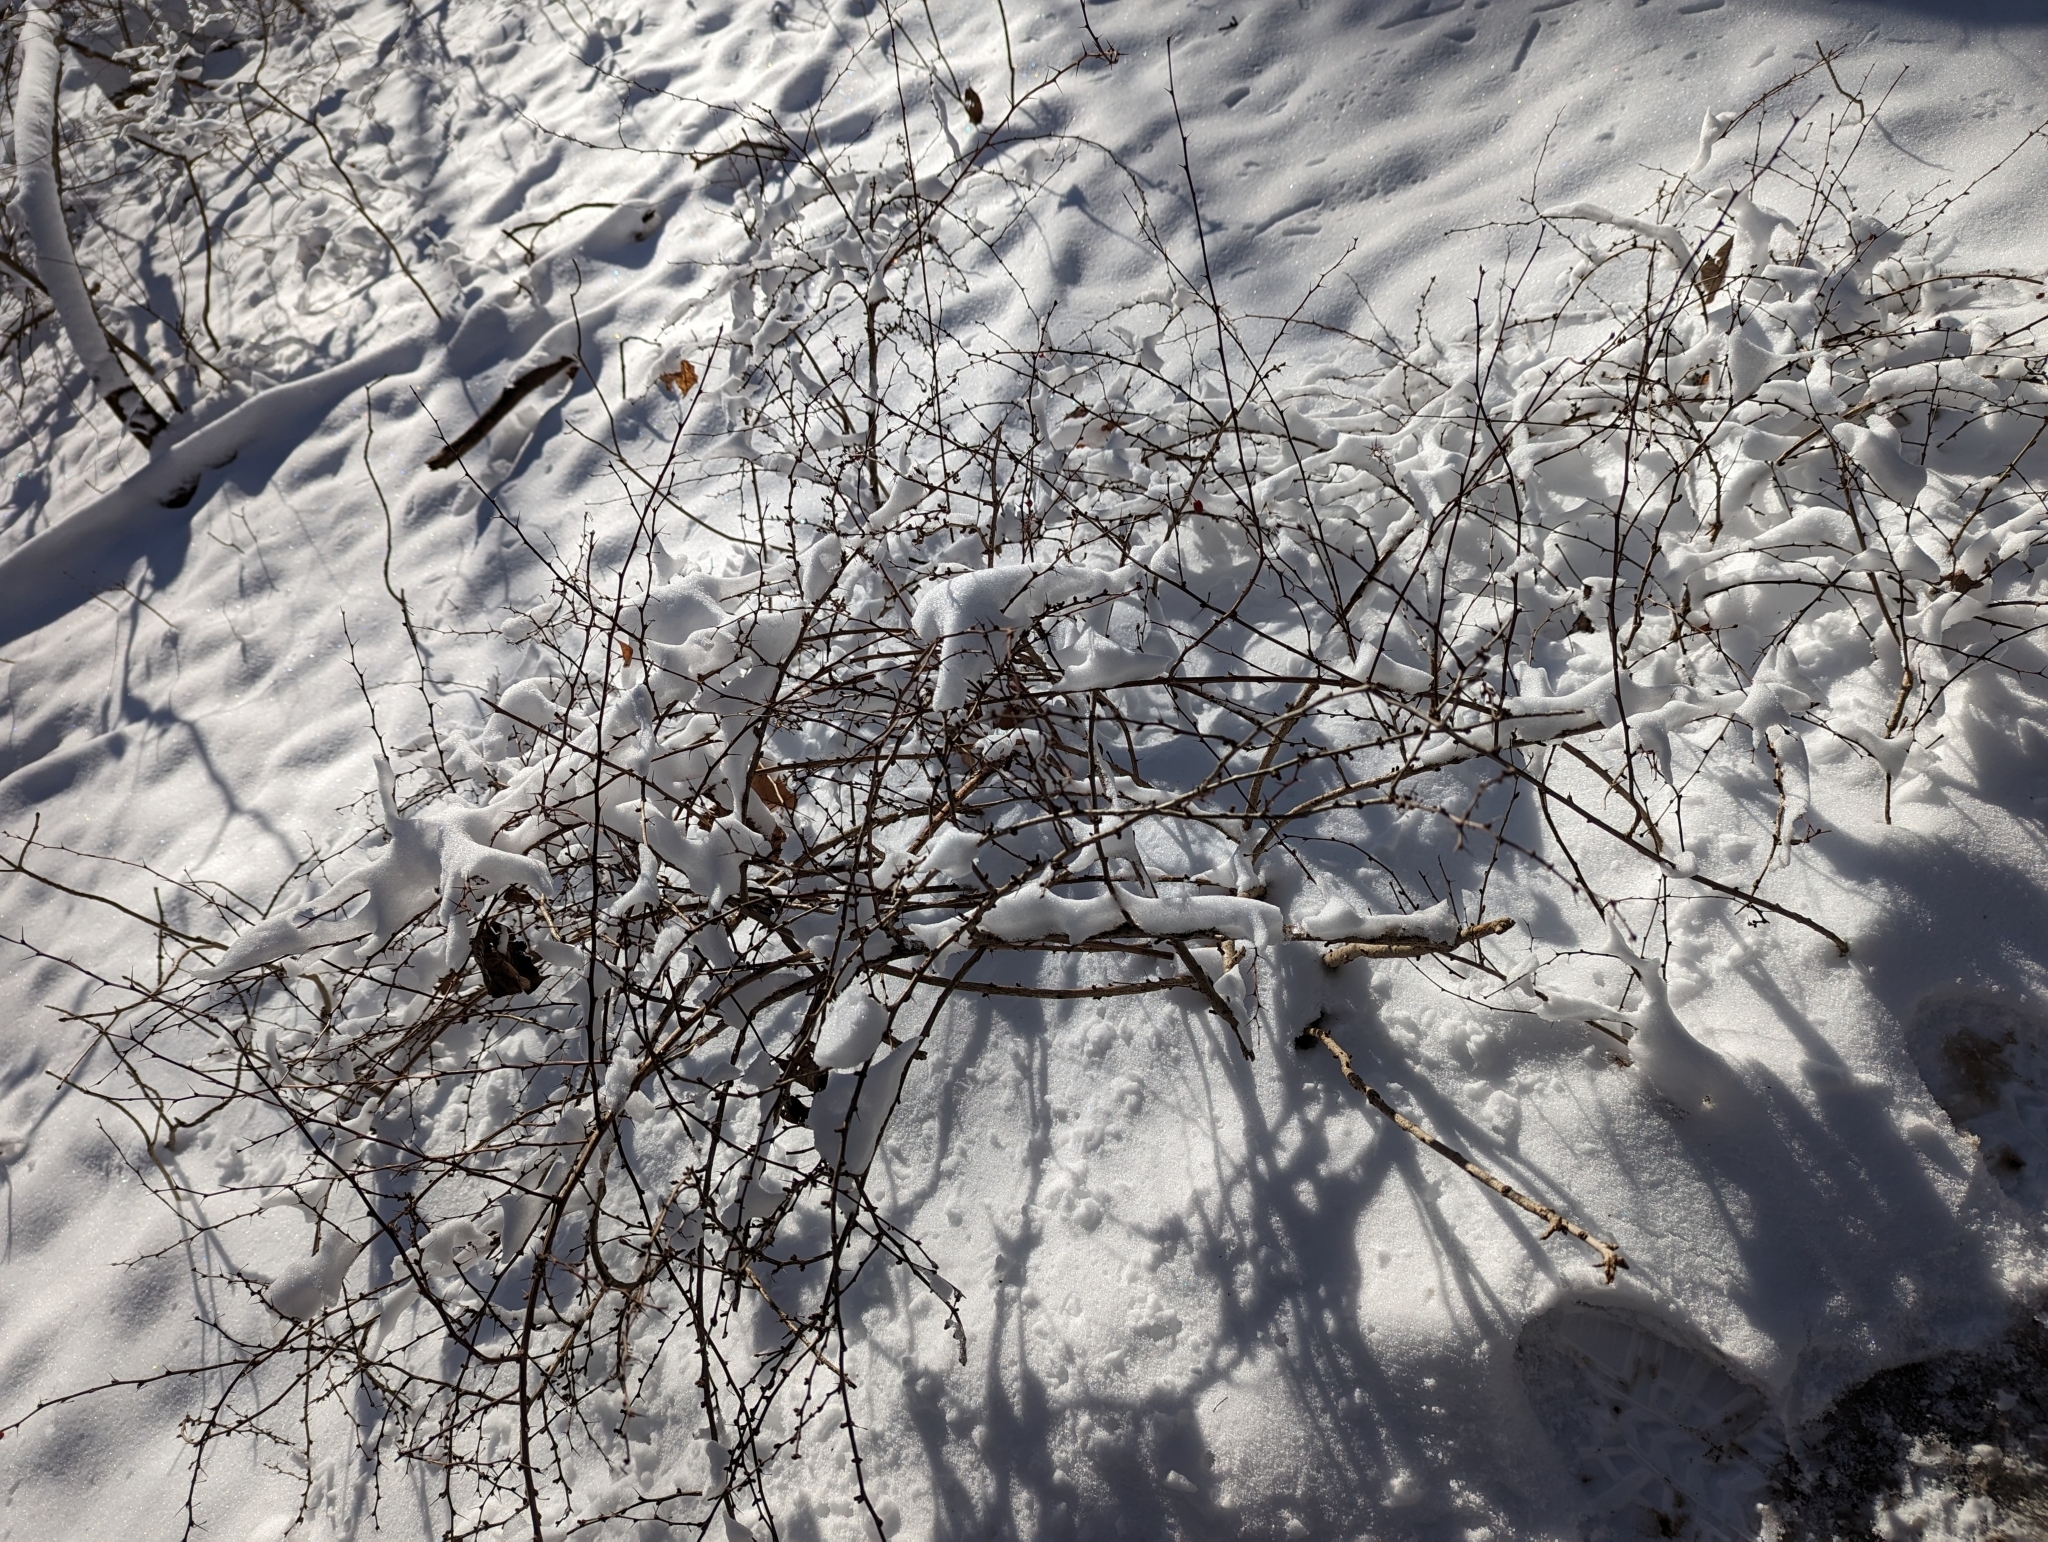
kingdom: Plantae
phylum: Tracheophyta
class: Magnoliopsida
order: Ranunculales
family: Berberidaceae
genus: Berberis
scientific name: Berberis thunbergii
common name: Japanese barberry
